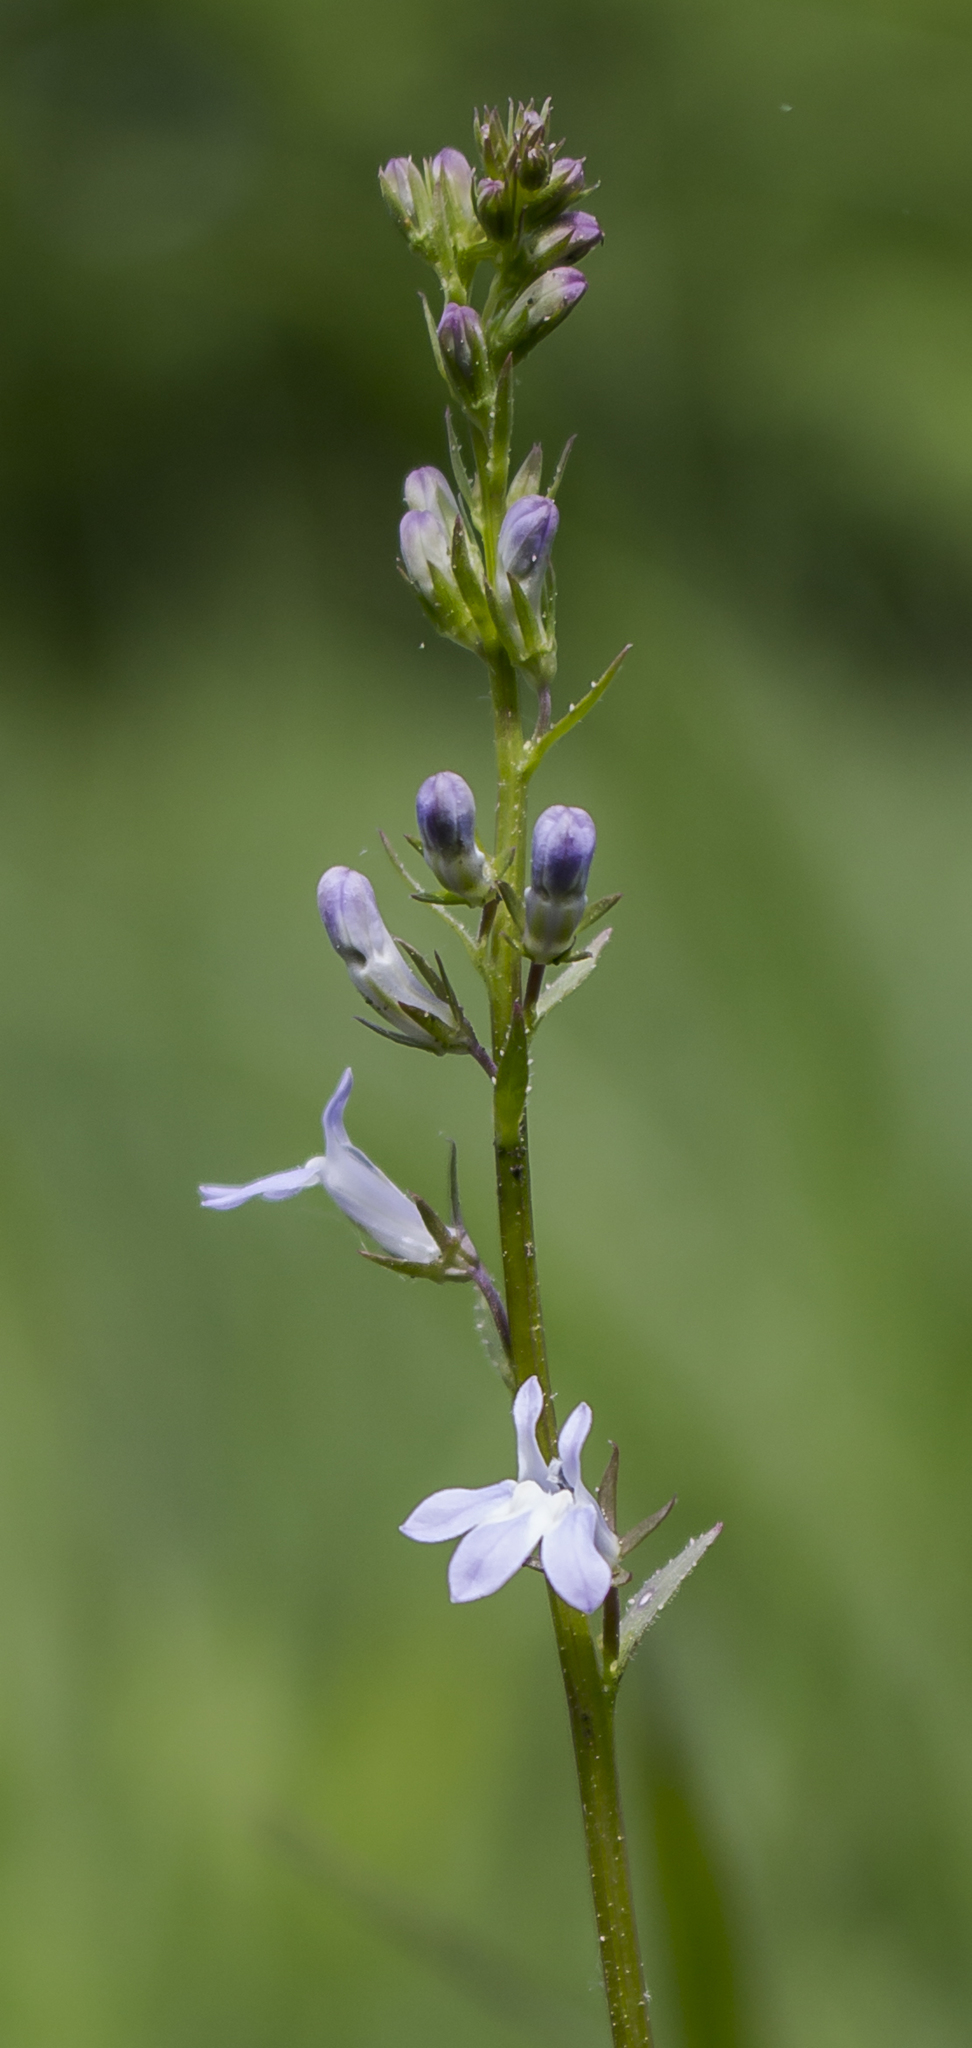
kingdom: Plantae
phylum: Tracheophyta
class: Magnoliopsida
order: Asterales
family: Campanulaceae
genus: Lobelia
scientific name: Lobelia spicata
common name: Pale-spike lobelia
